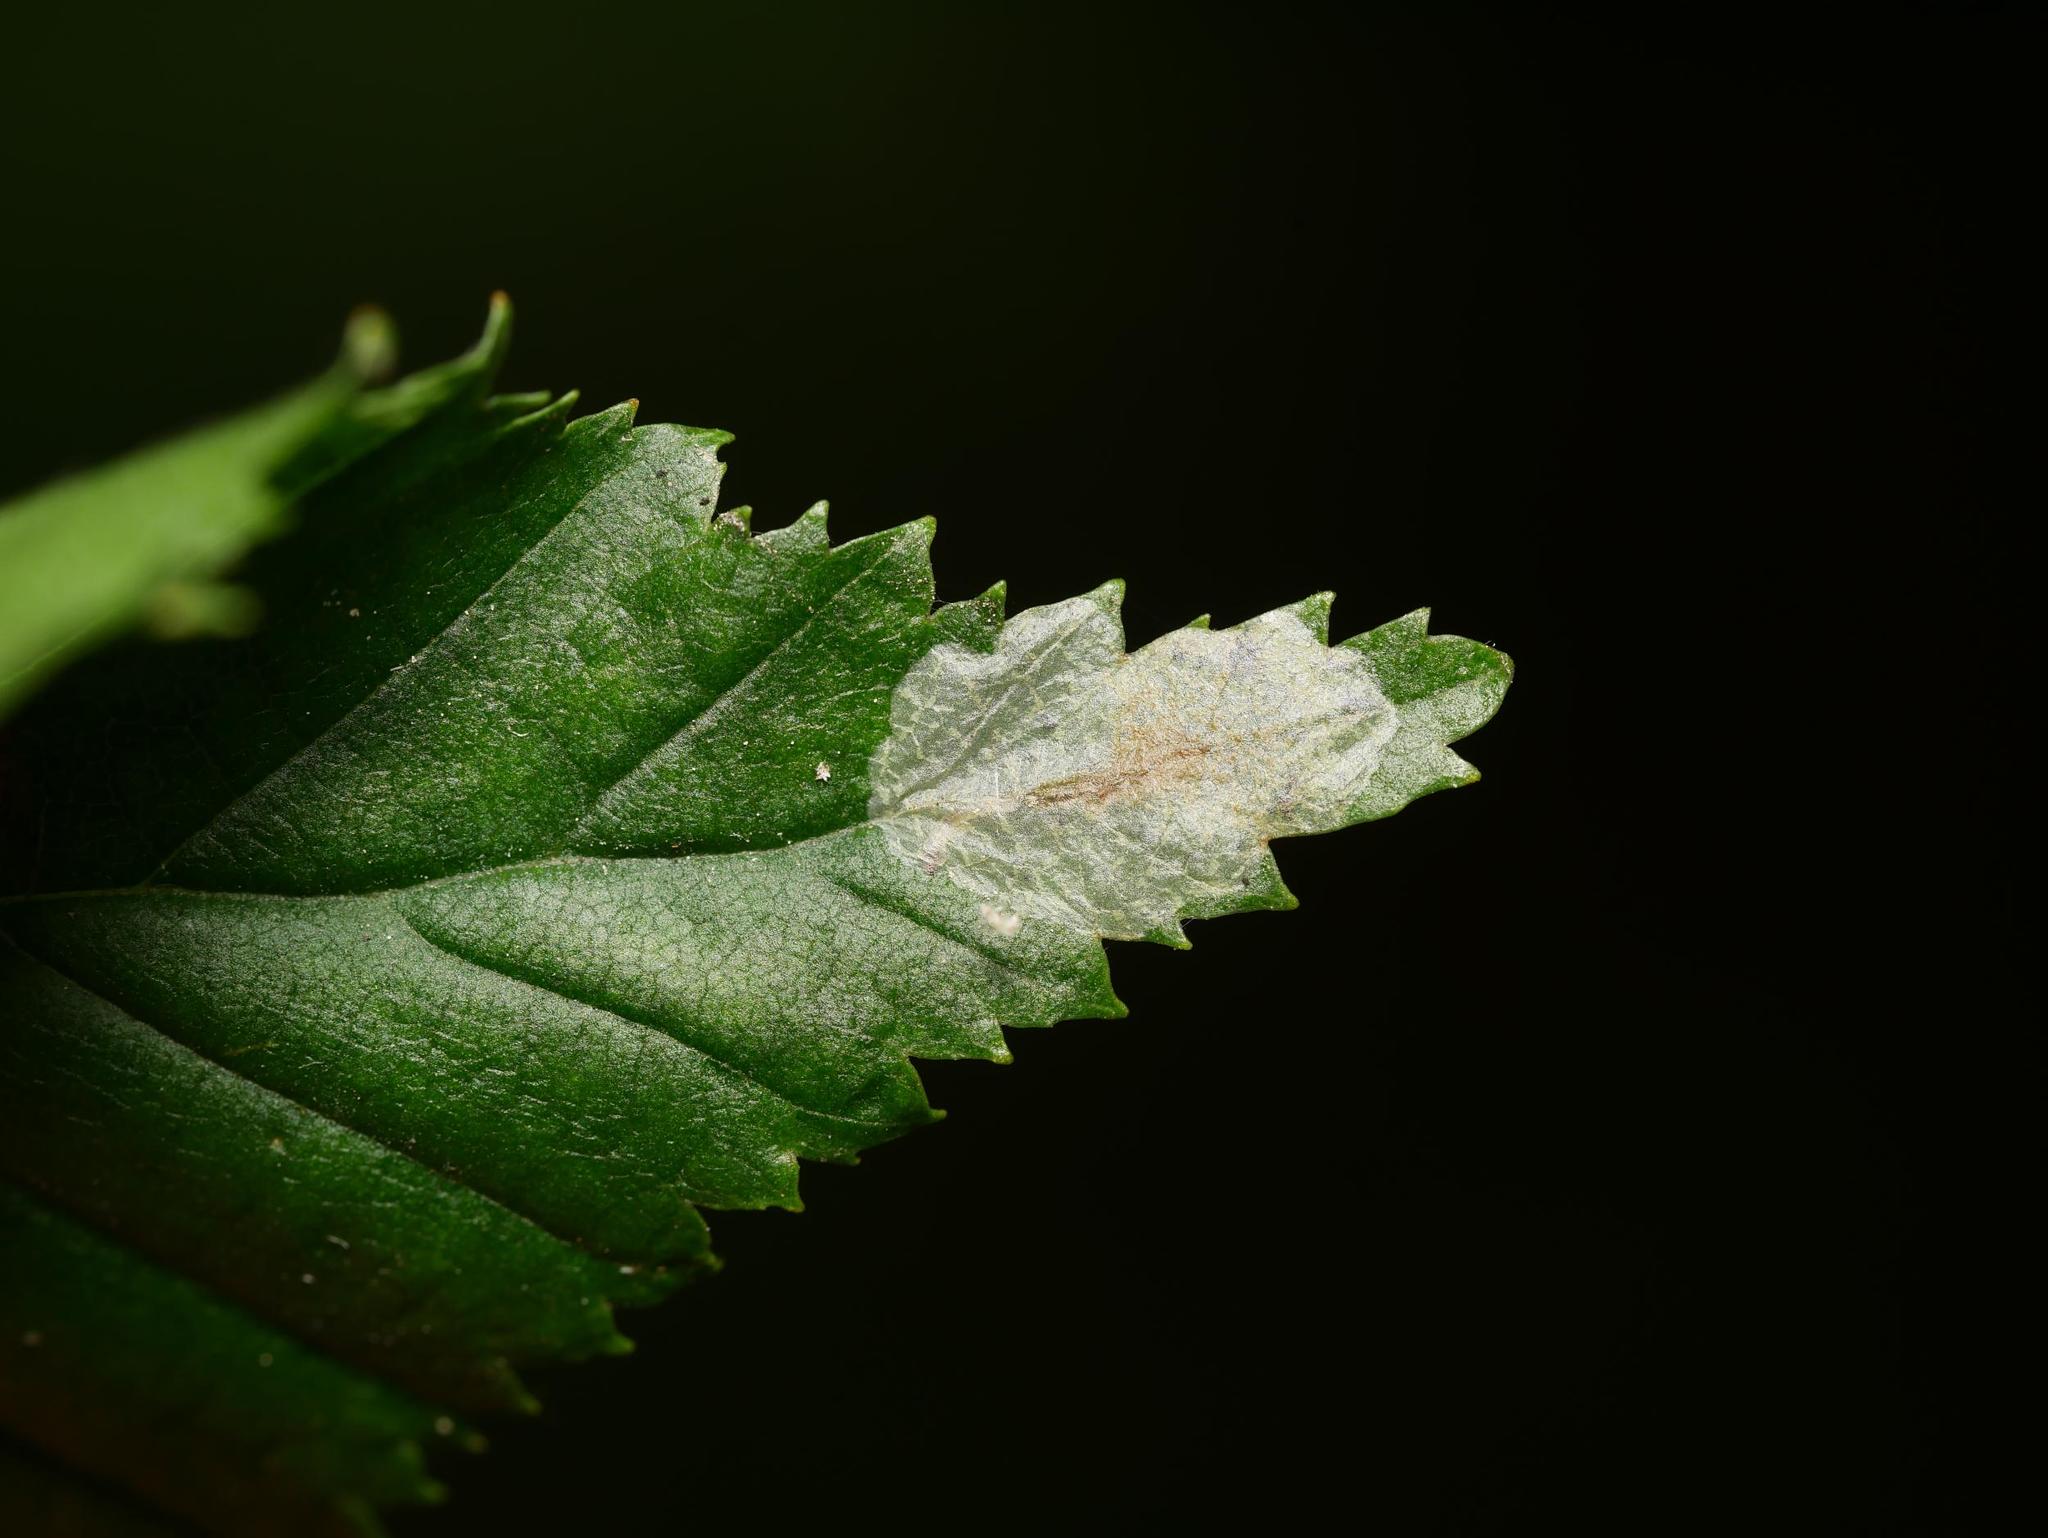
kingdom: Animalia
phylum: Arthropoda
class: Insecta
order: Lepidoptera
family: Gracillariidae
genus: Phyllonorycter
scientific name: Phyllonorycter esperella
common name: Dark hornbeam midget
